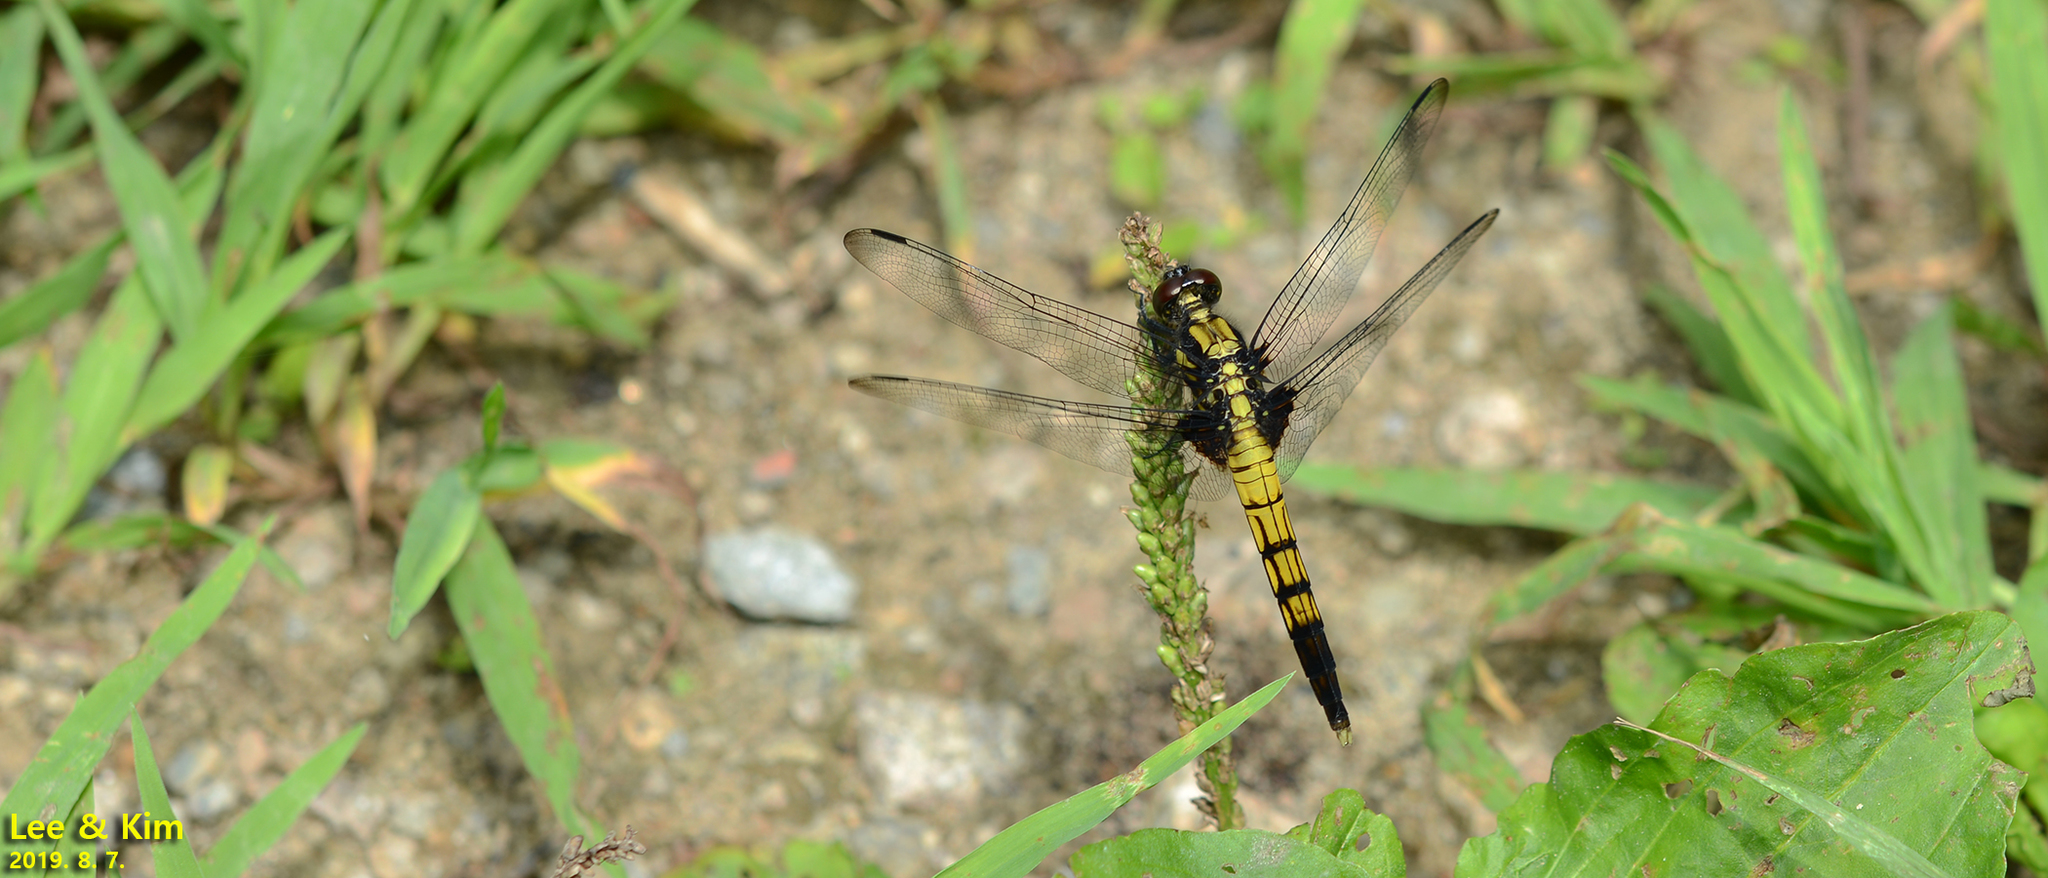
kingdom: Animalia
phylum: Arthropoda
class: Insecta
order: Odonata
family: Libellulidae
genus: Orthetrum
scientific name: Orthetrum melania
